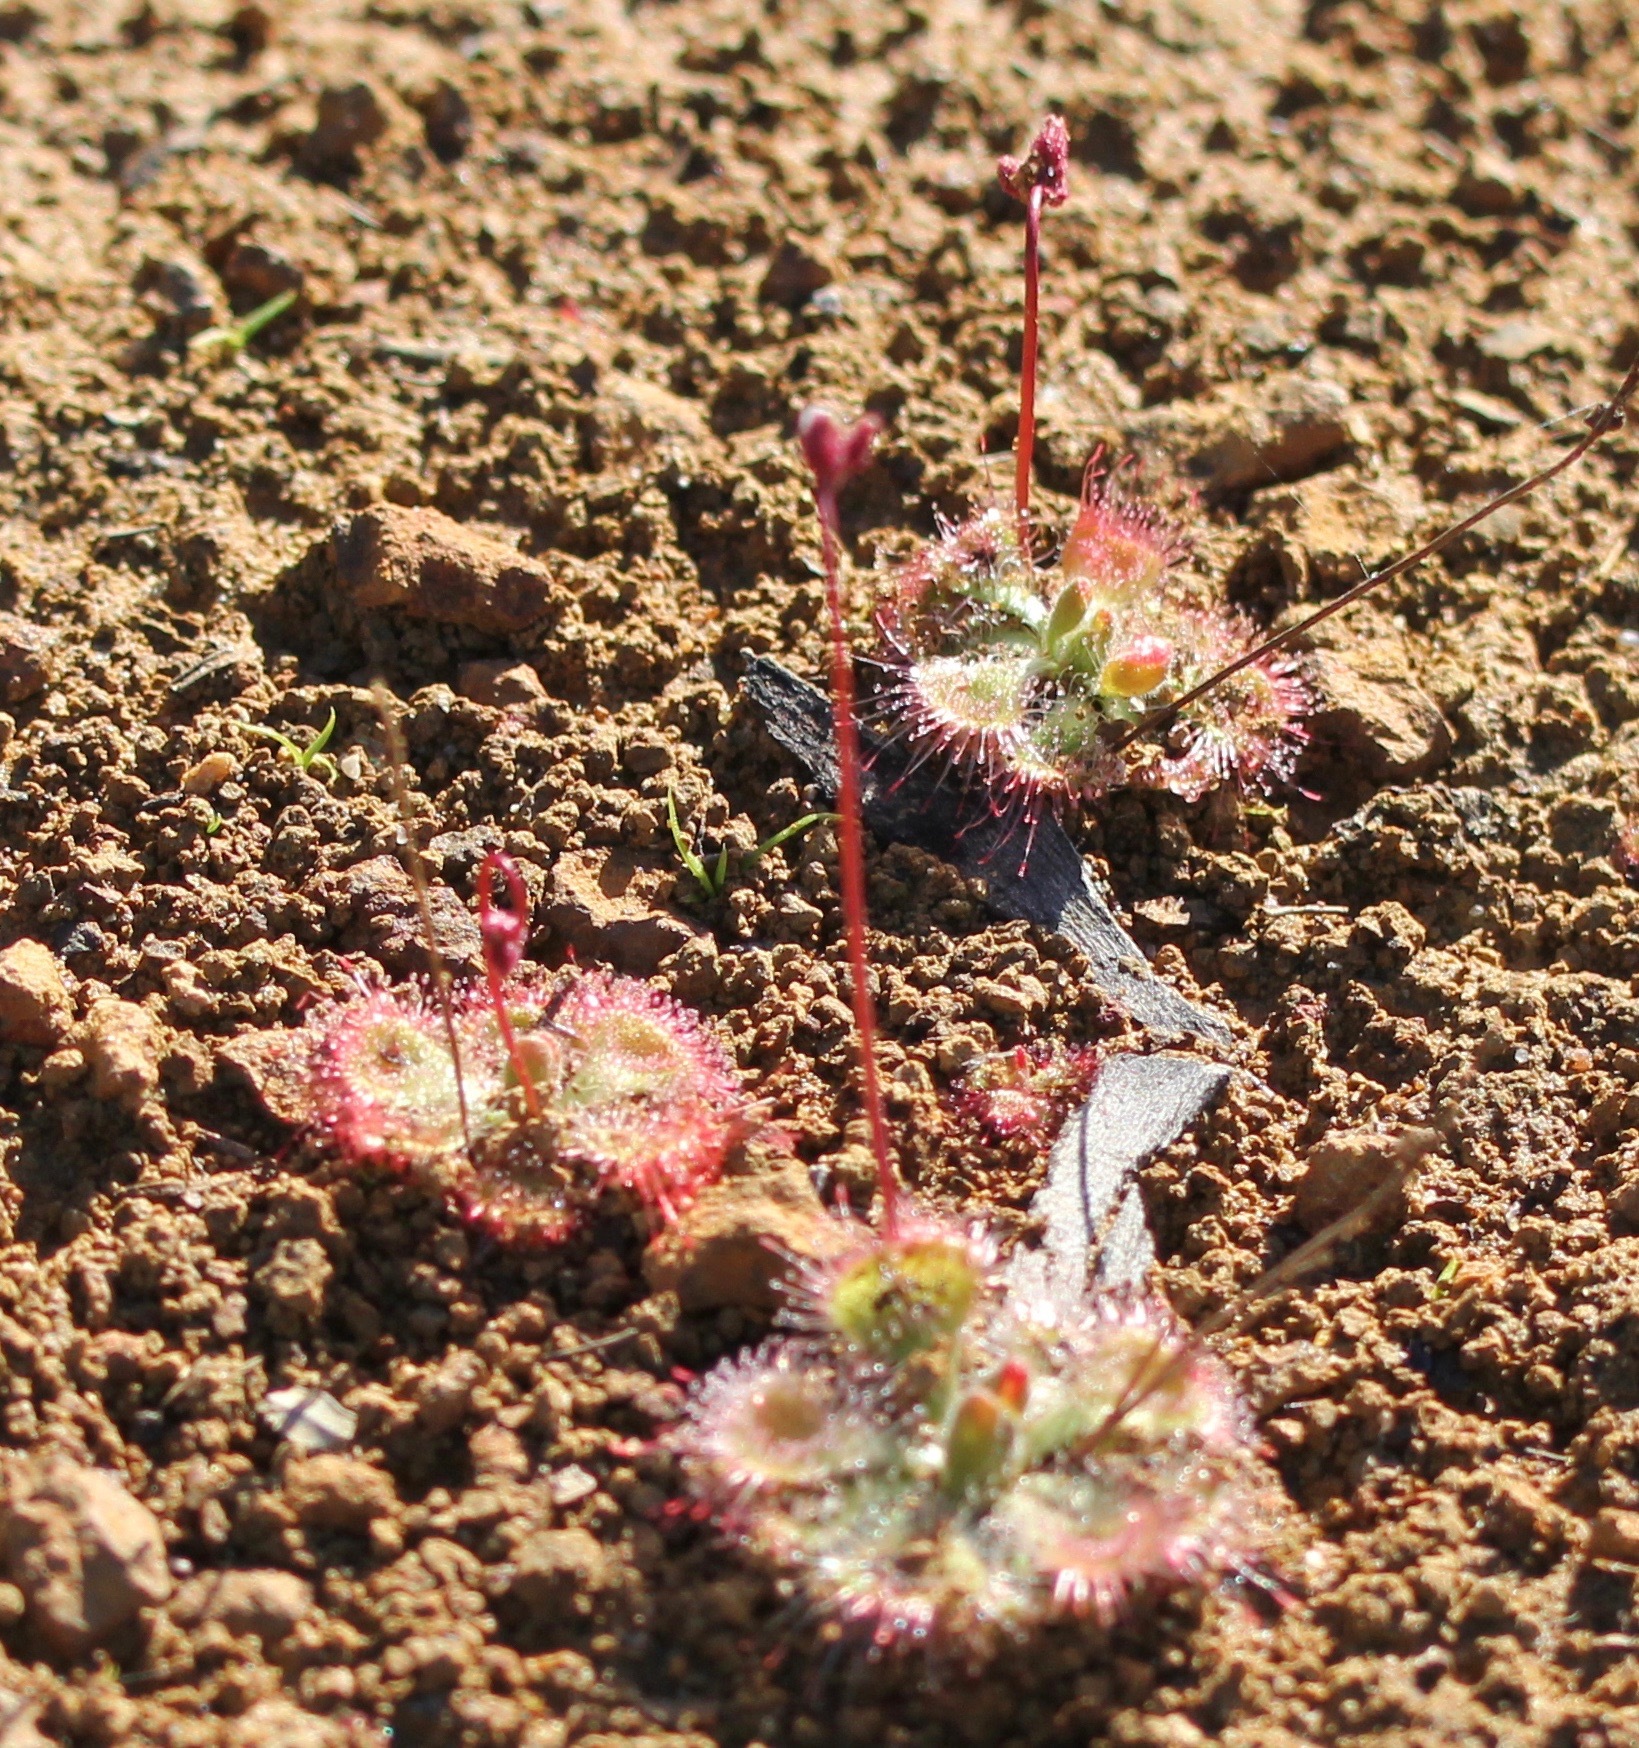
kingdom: Plantae
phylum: Tracheophyta
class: Magnoliopsida
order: Caryophyllales
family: Droseraceae
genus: Drosera
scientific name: Drosera spatulata
